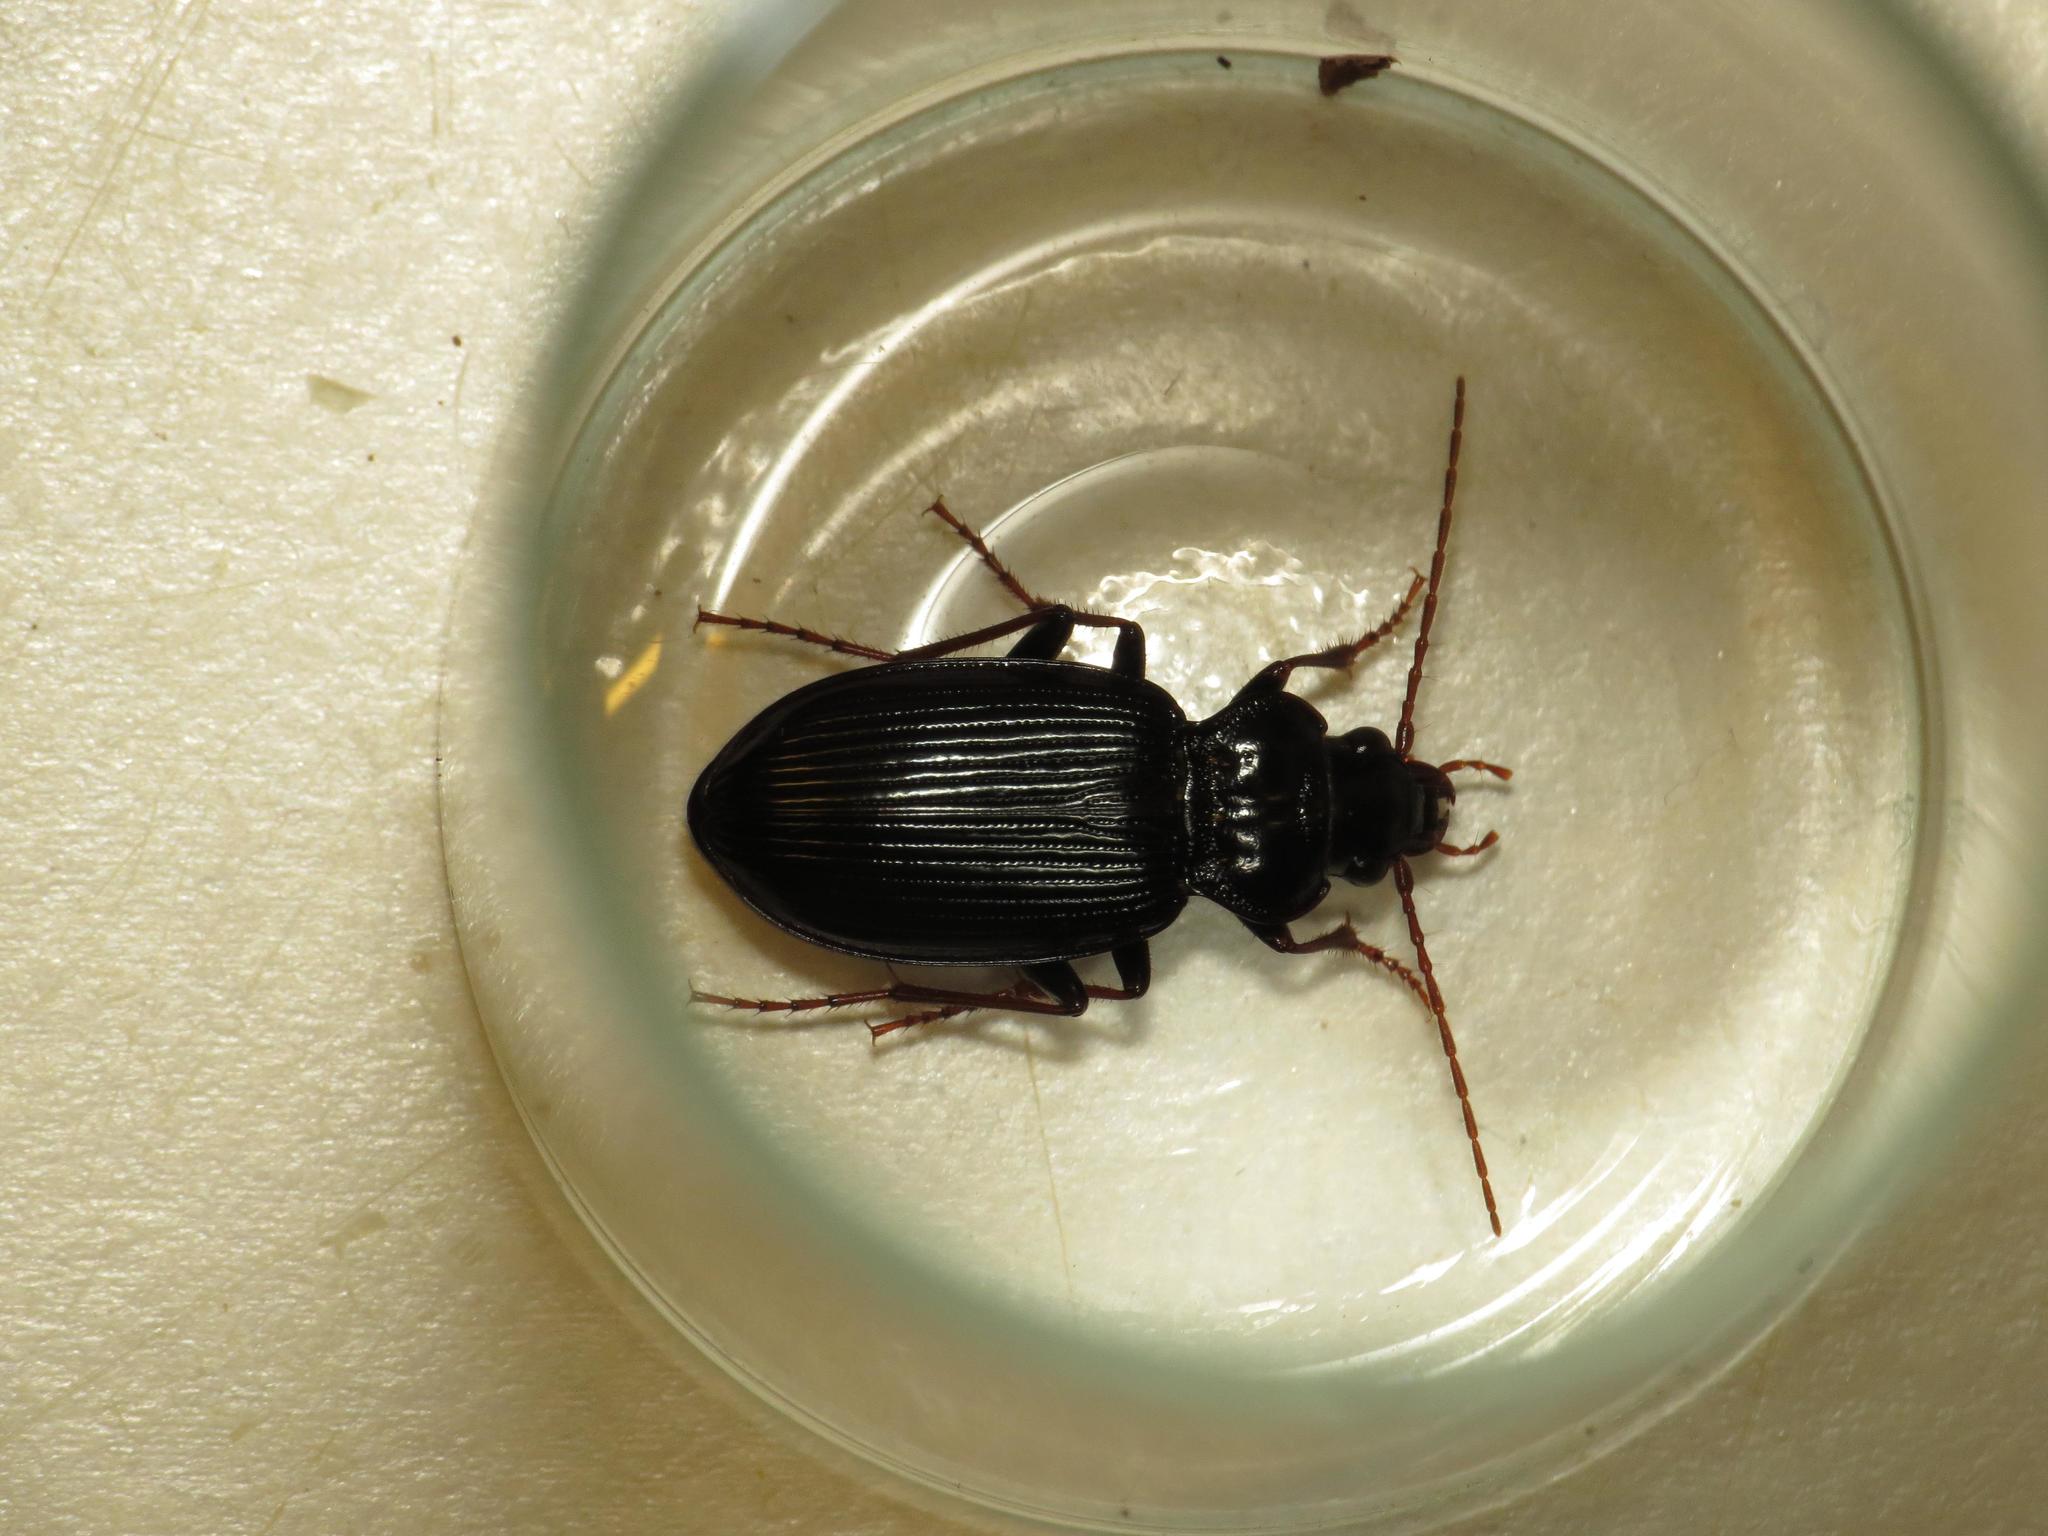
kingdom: Animalia
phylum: Arthropoda
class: Insecta
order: Coleoptera
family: Carabidae
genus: Nebria
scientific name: Nebria brevicollis
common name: Short-necked gazelle beetle
